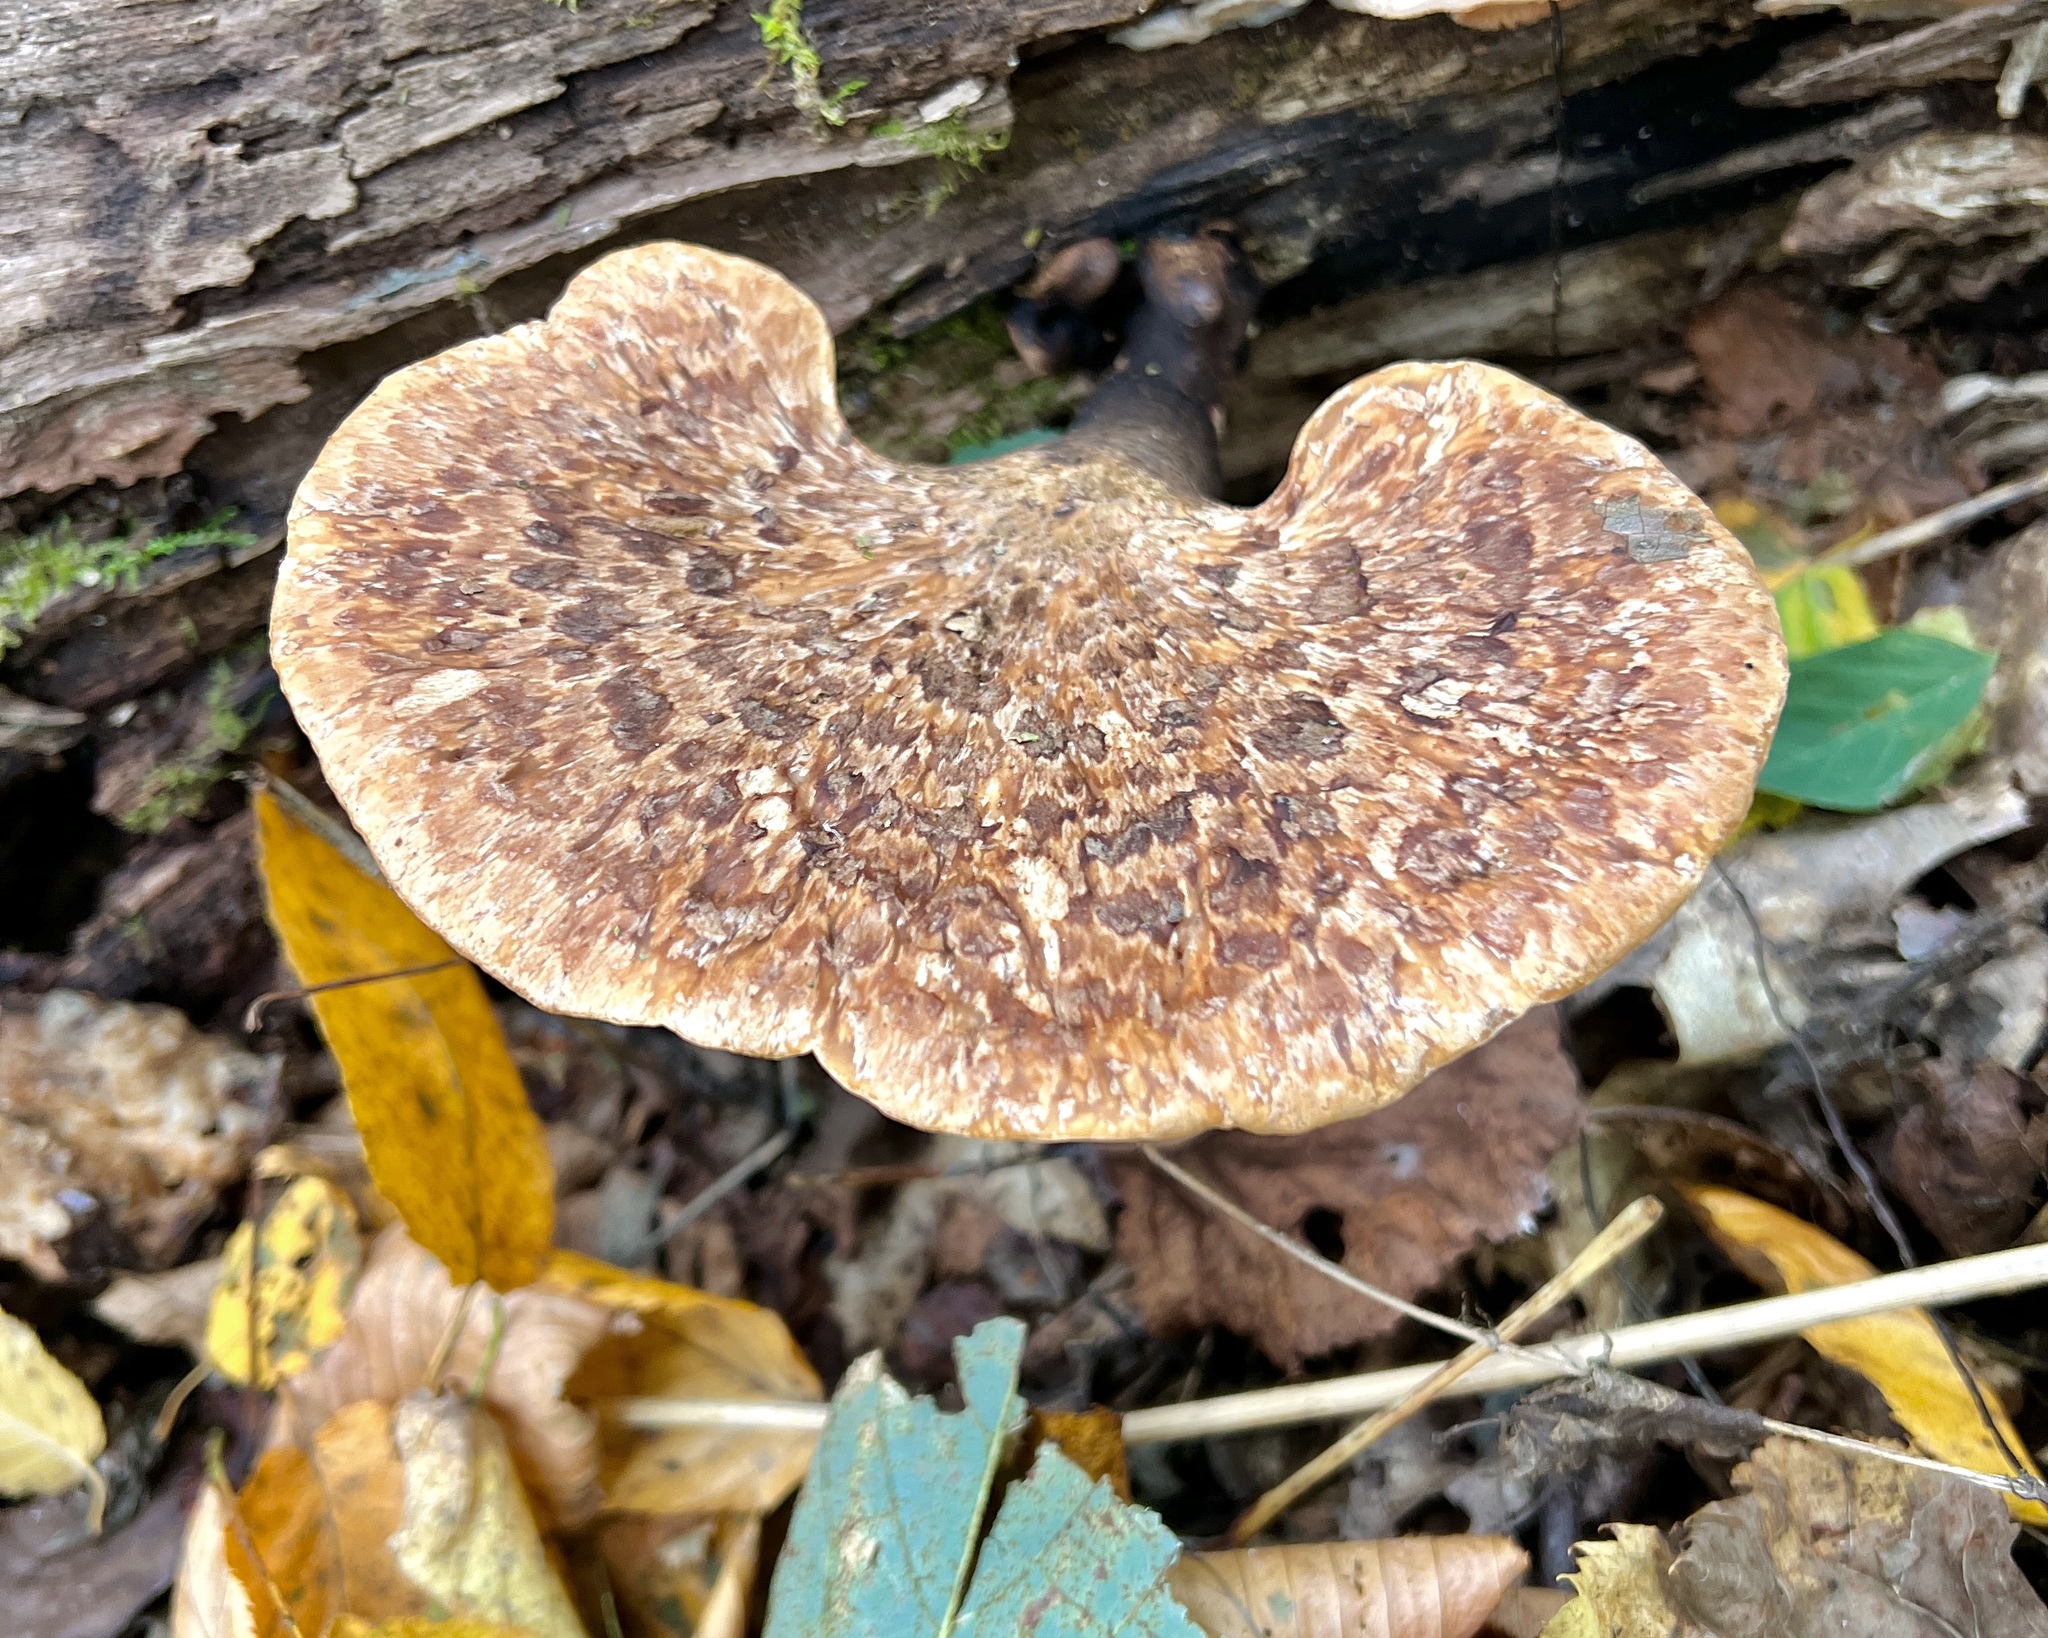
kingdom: Fungi
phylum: Basidiomycota
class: Agaricomycetes
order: Polyporales
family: Polyporaceae
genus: Cerioporus
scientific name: Cerioporus squamosus
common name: Dryad's saddle
